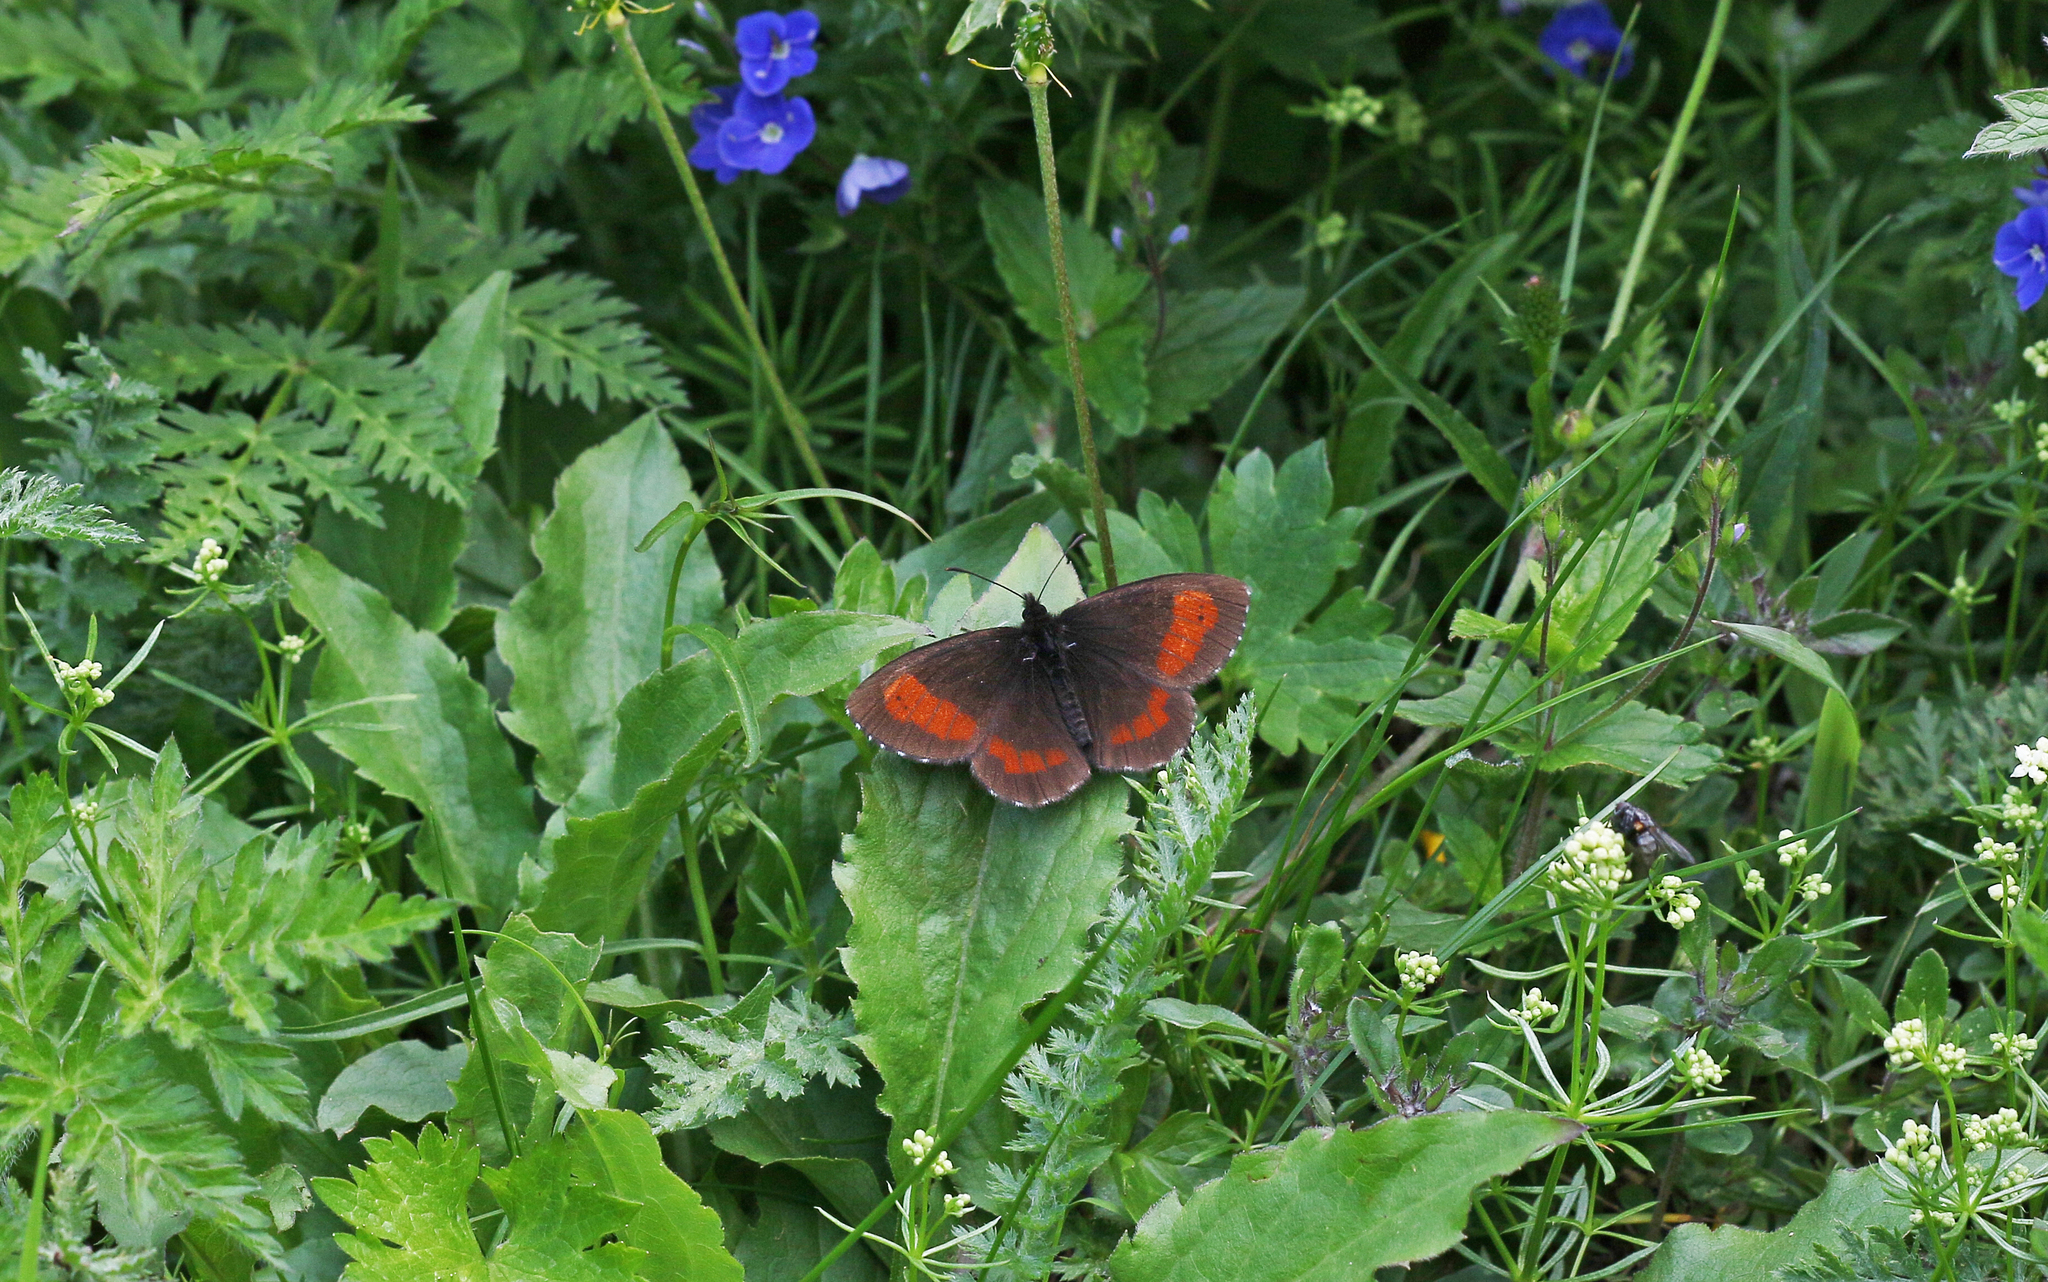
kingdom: Animalia
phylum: Arthropoda
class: Insecta
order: Lepidoptera
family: Nymphalidae
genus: Erebia
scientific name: Erebia euryale
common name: Large ringlet
